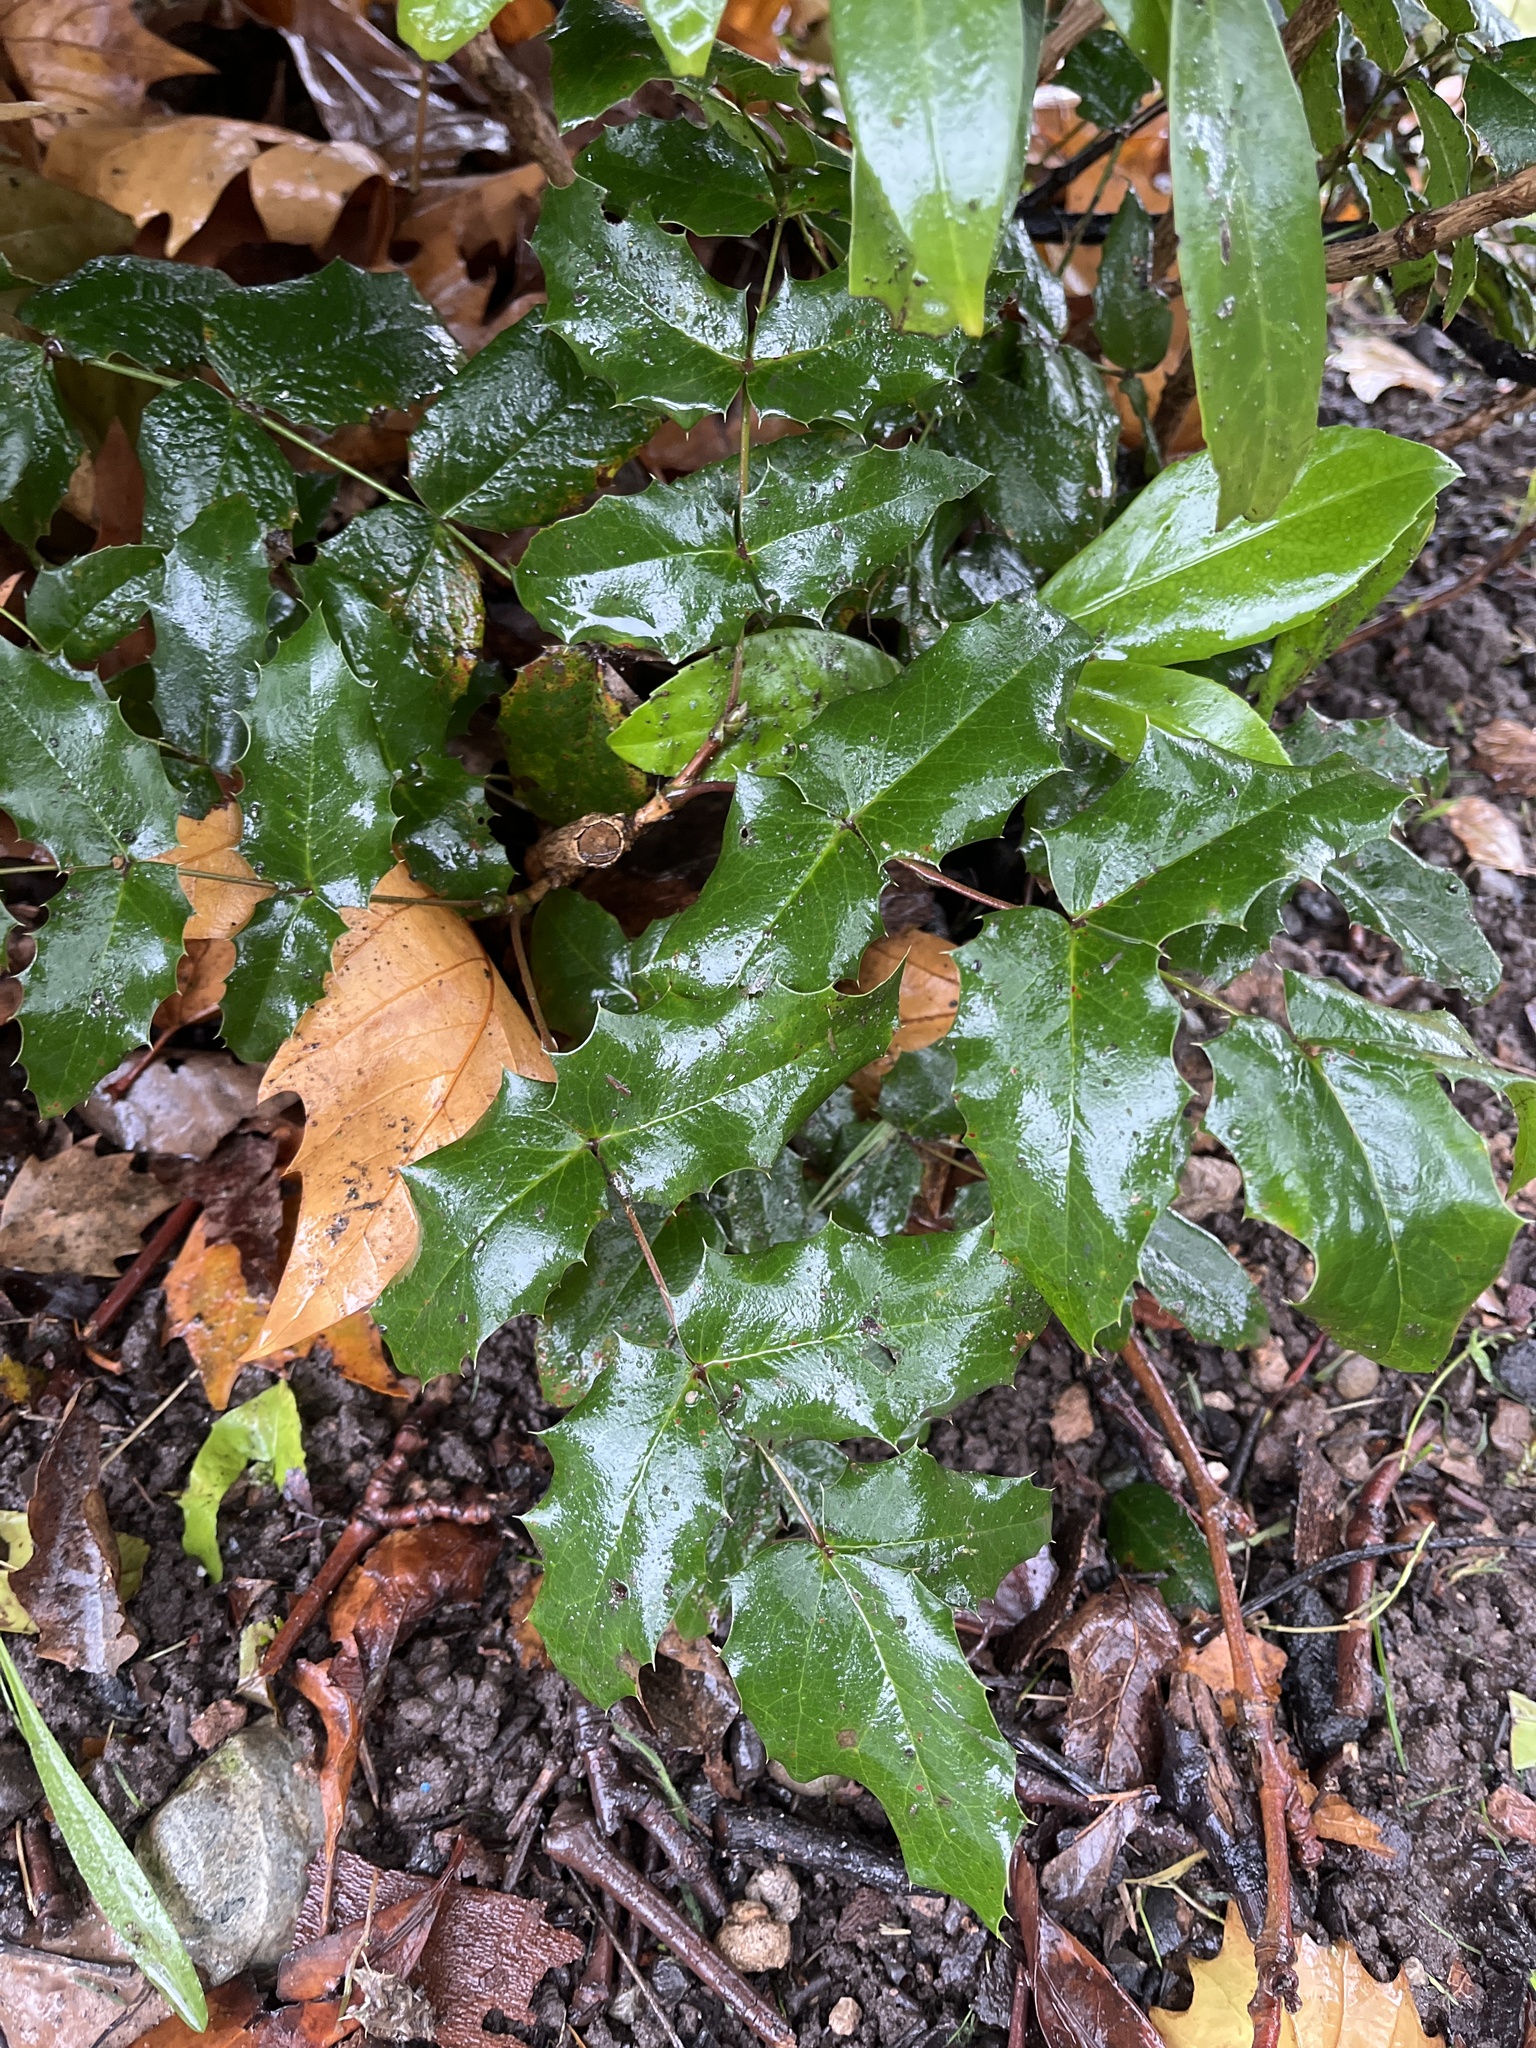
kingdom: Plantae
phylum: Tracheophyta
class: Magnoliopsida
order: Ranunculales
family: Berberidaceae
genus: Mahonia
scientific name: Mahonia aquifolium
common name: Oregon-grape
